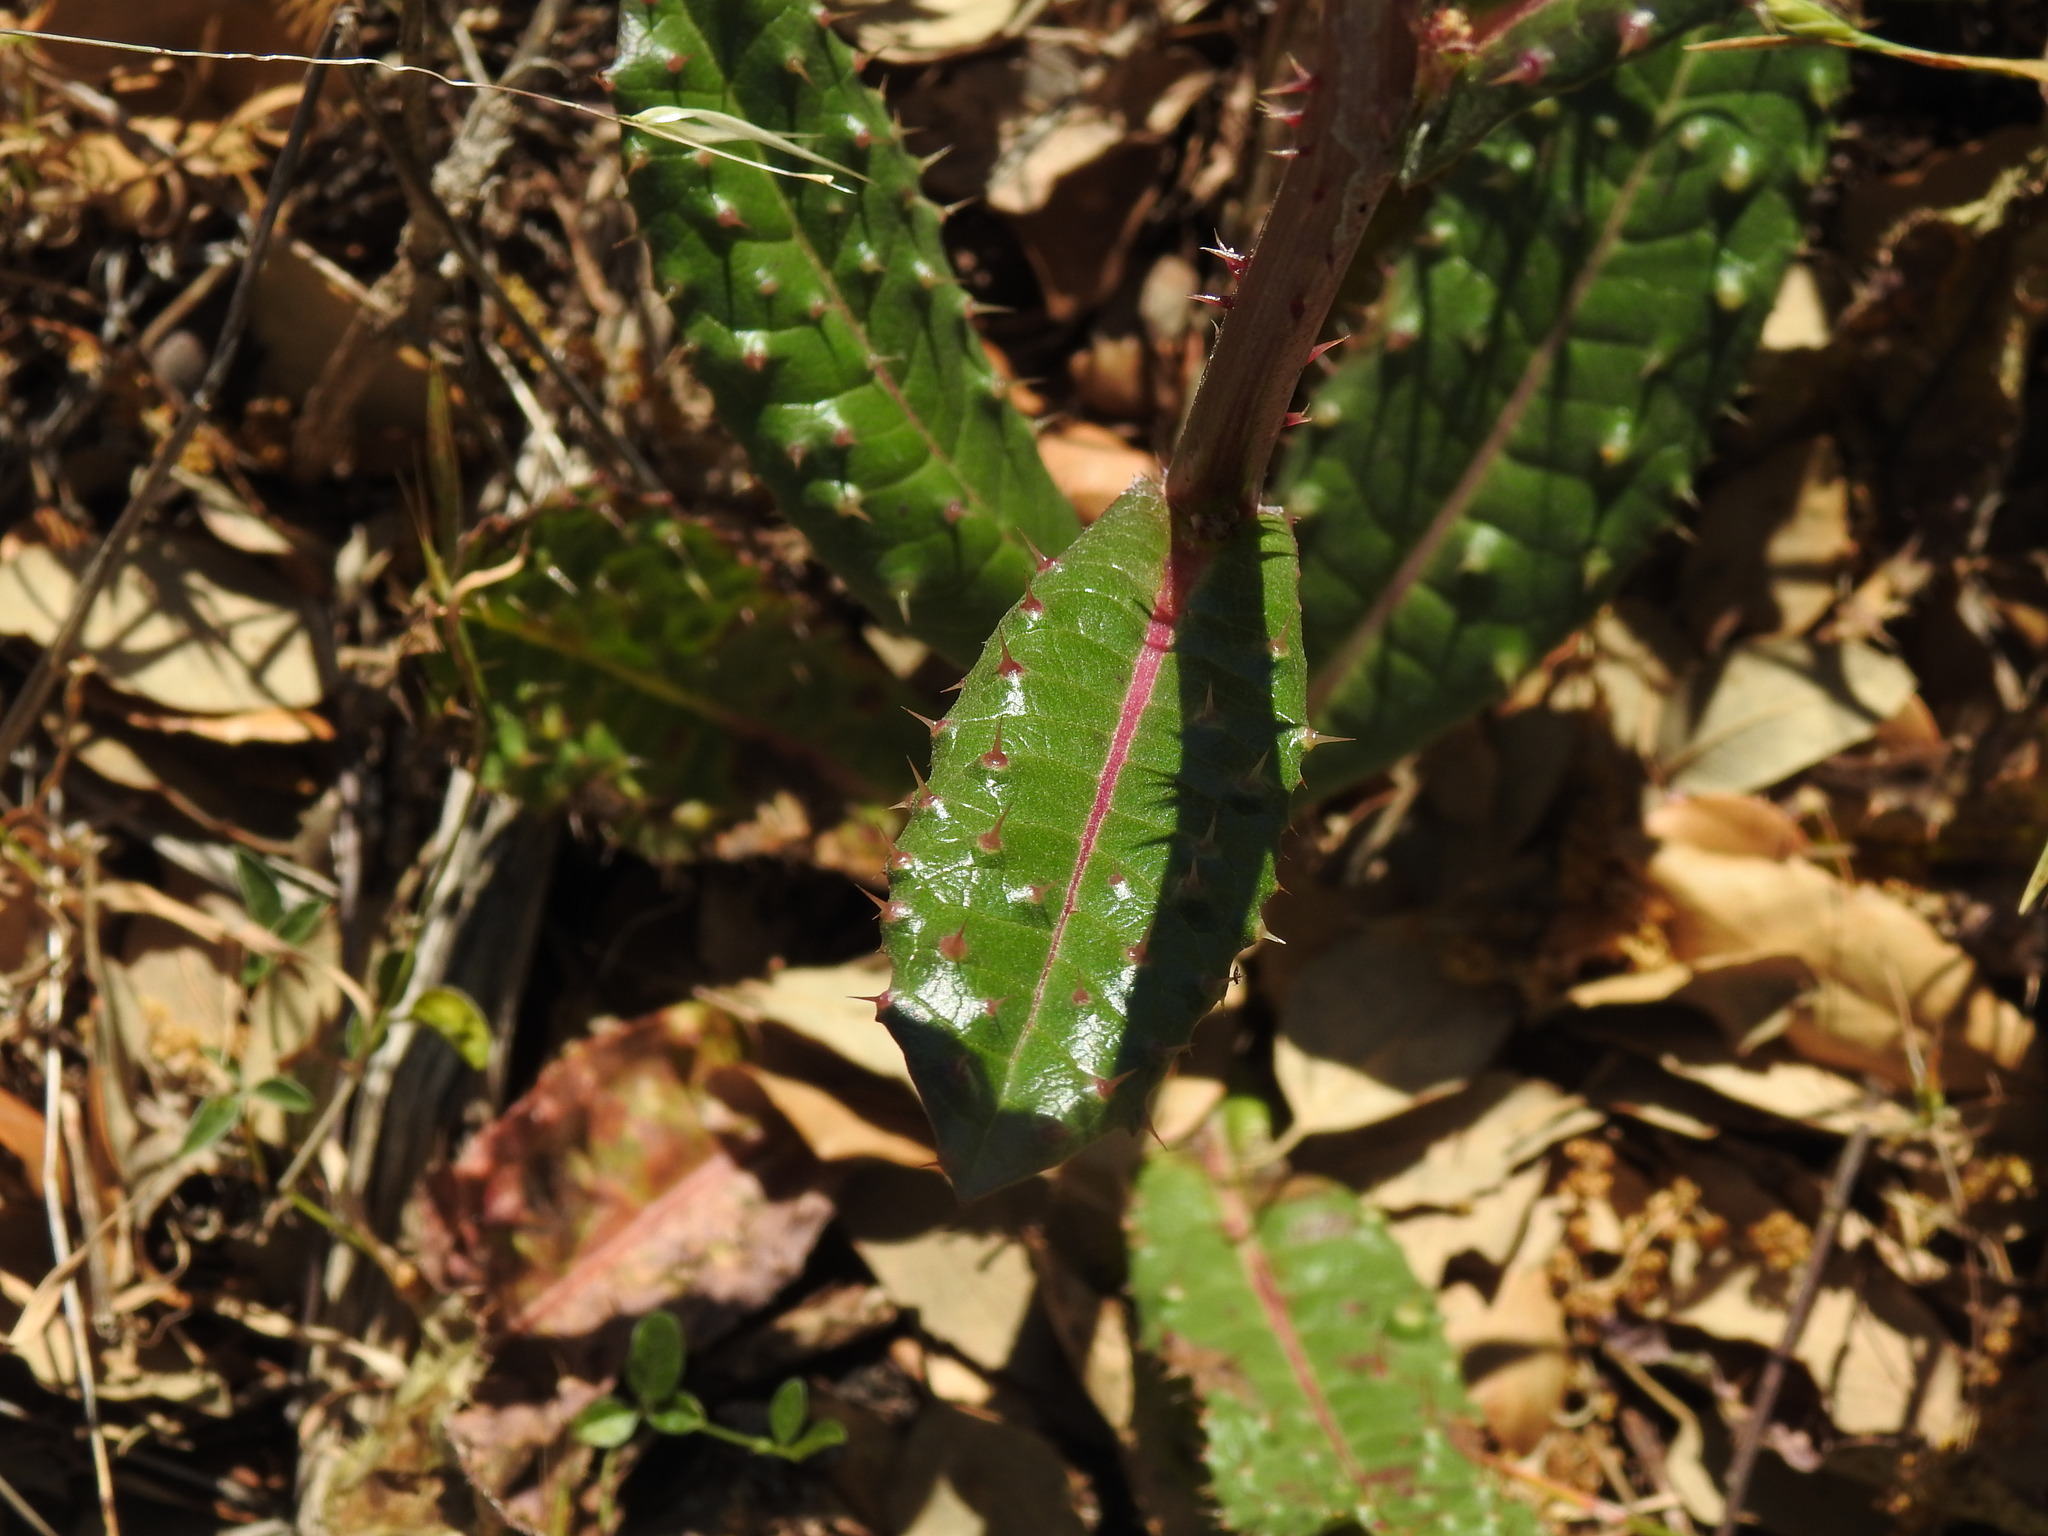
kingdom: Plantae
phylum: Tracheophyta
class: Magnoliopsida
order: Asterales
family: Asteraceae
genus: Helminthotheca
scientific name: Helminthotheca spinosa
